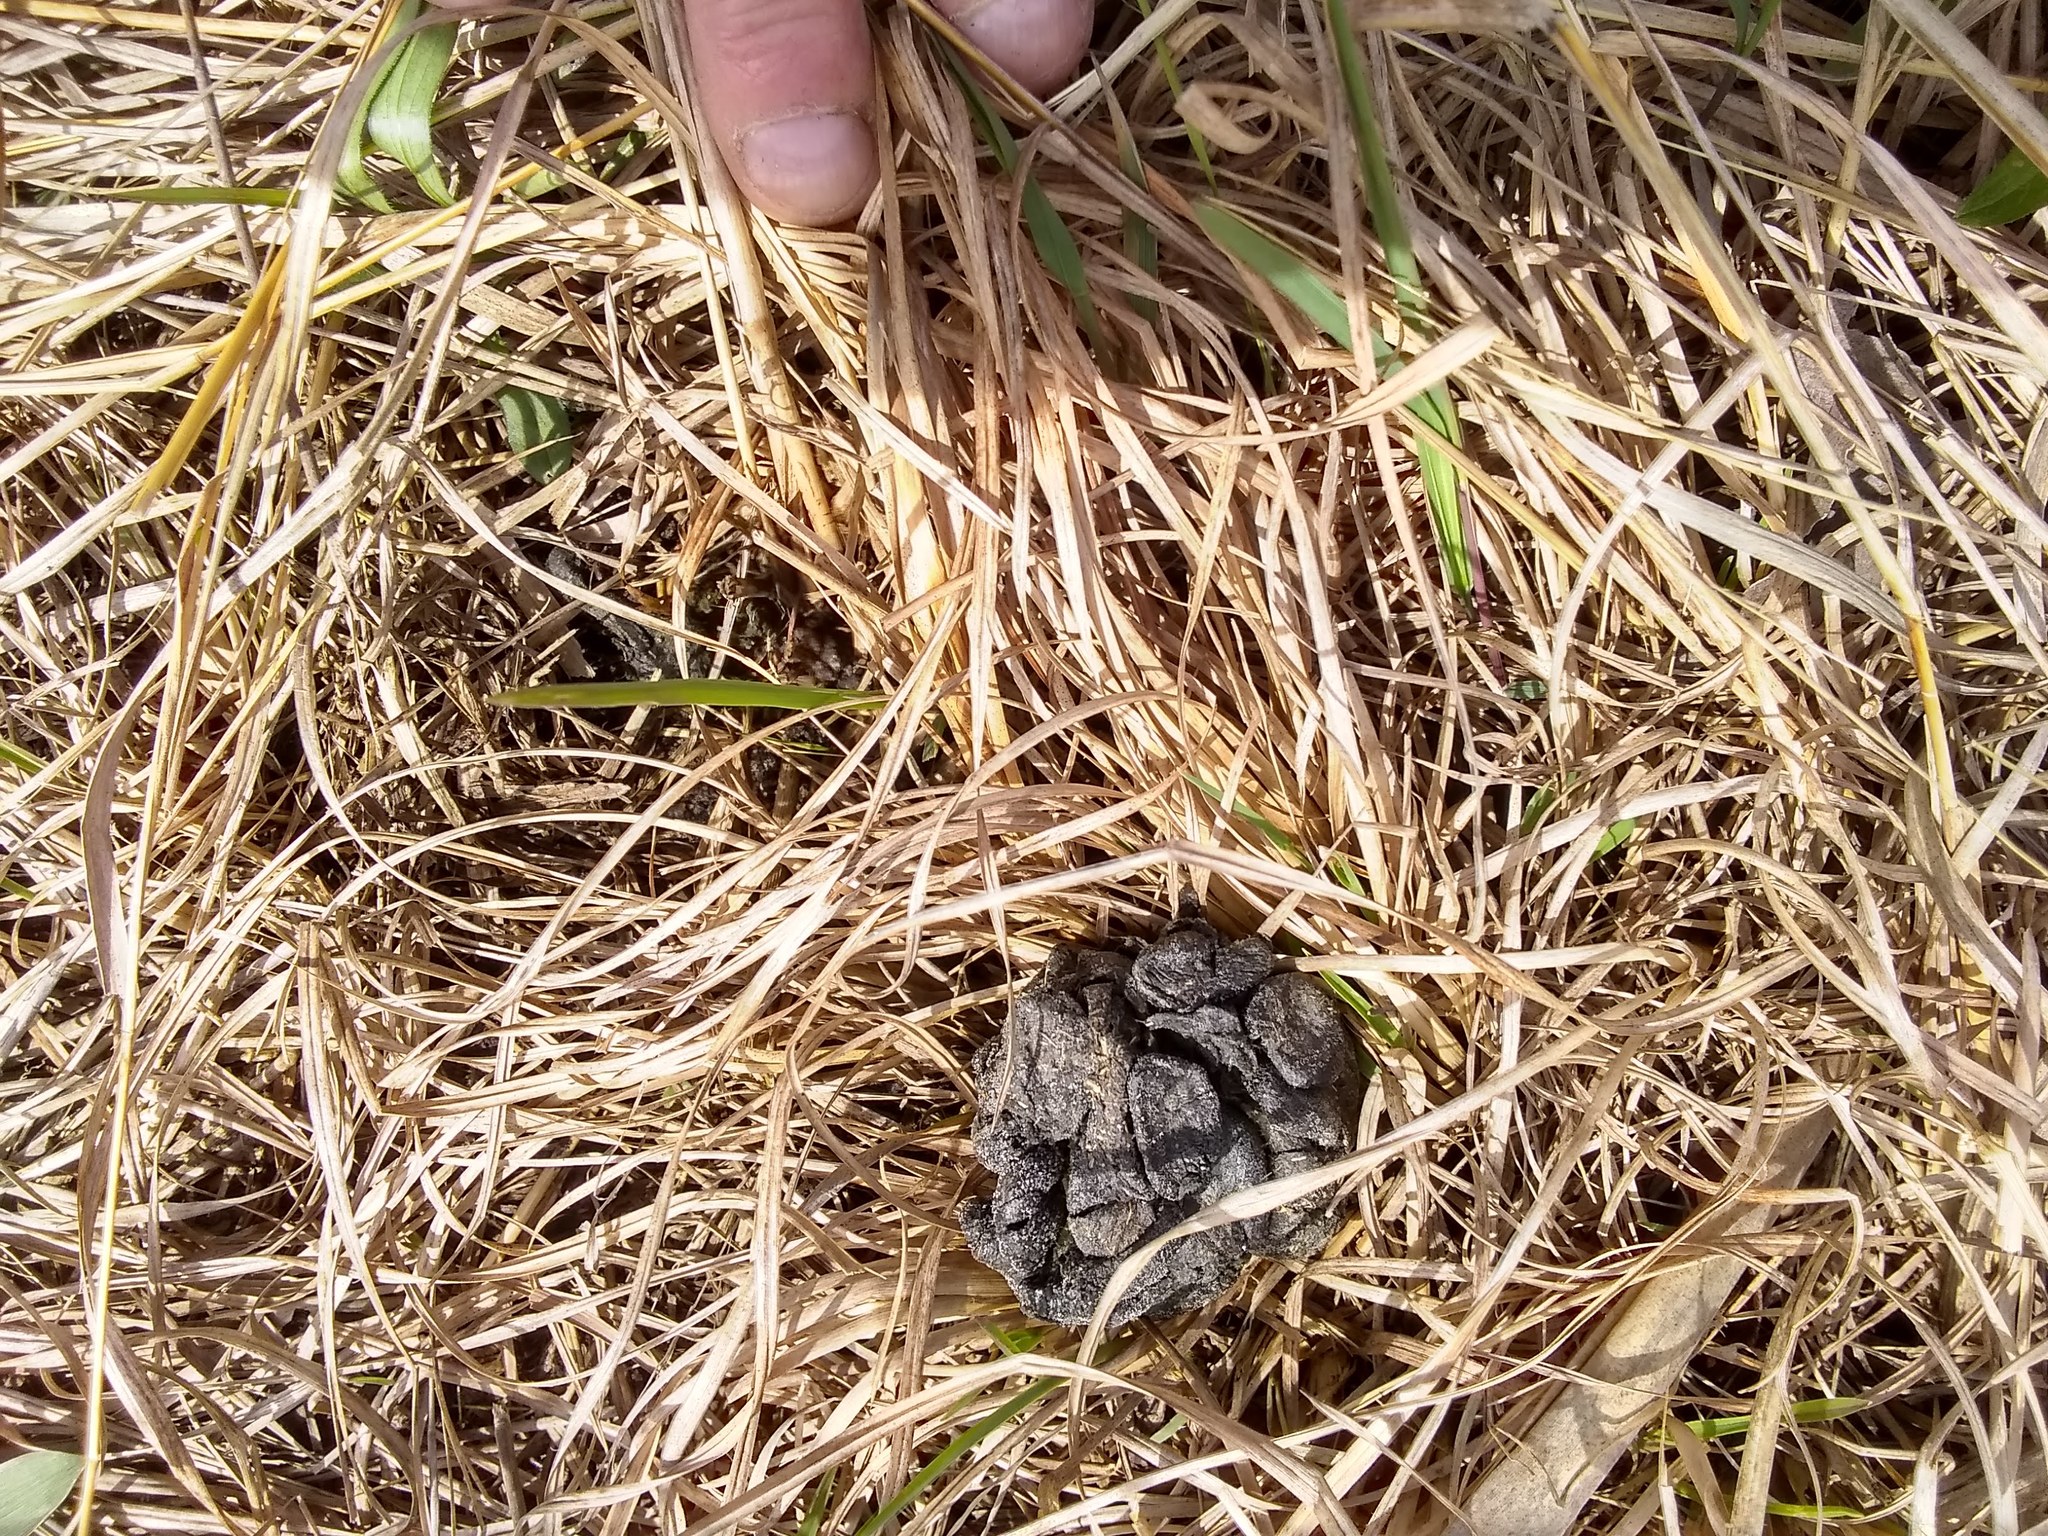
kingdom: Animalia
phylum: Chordata
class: Mammalia
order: Artiodactyla
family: Cervidae
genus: Odocoileus
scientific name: Odocoileus virginianus
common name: White-tailed deer
